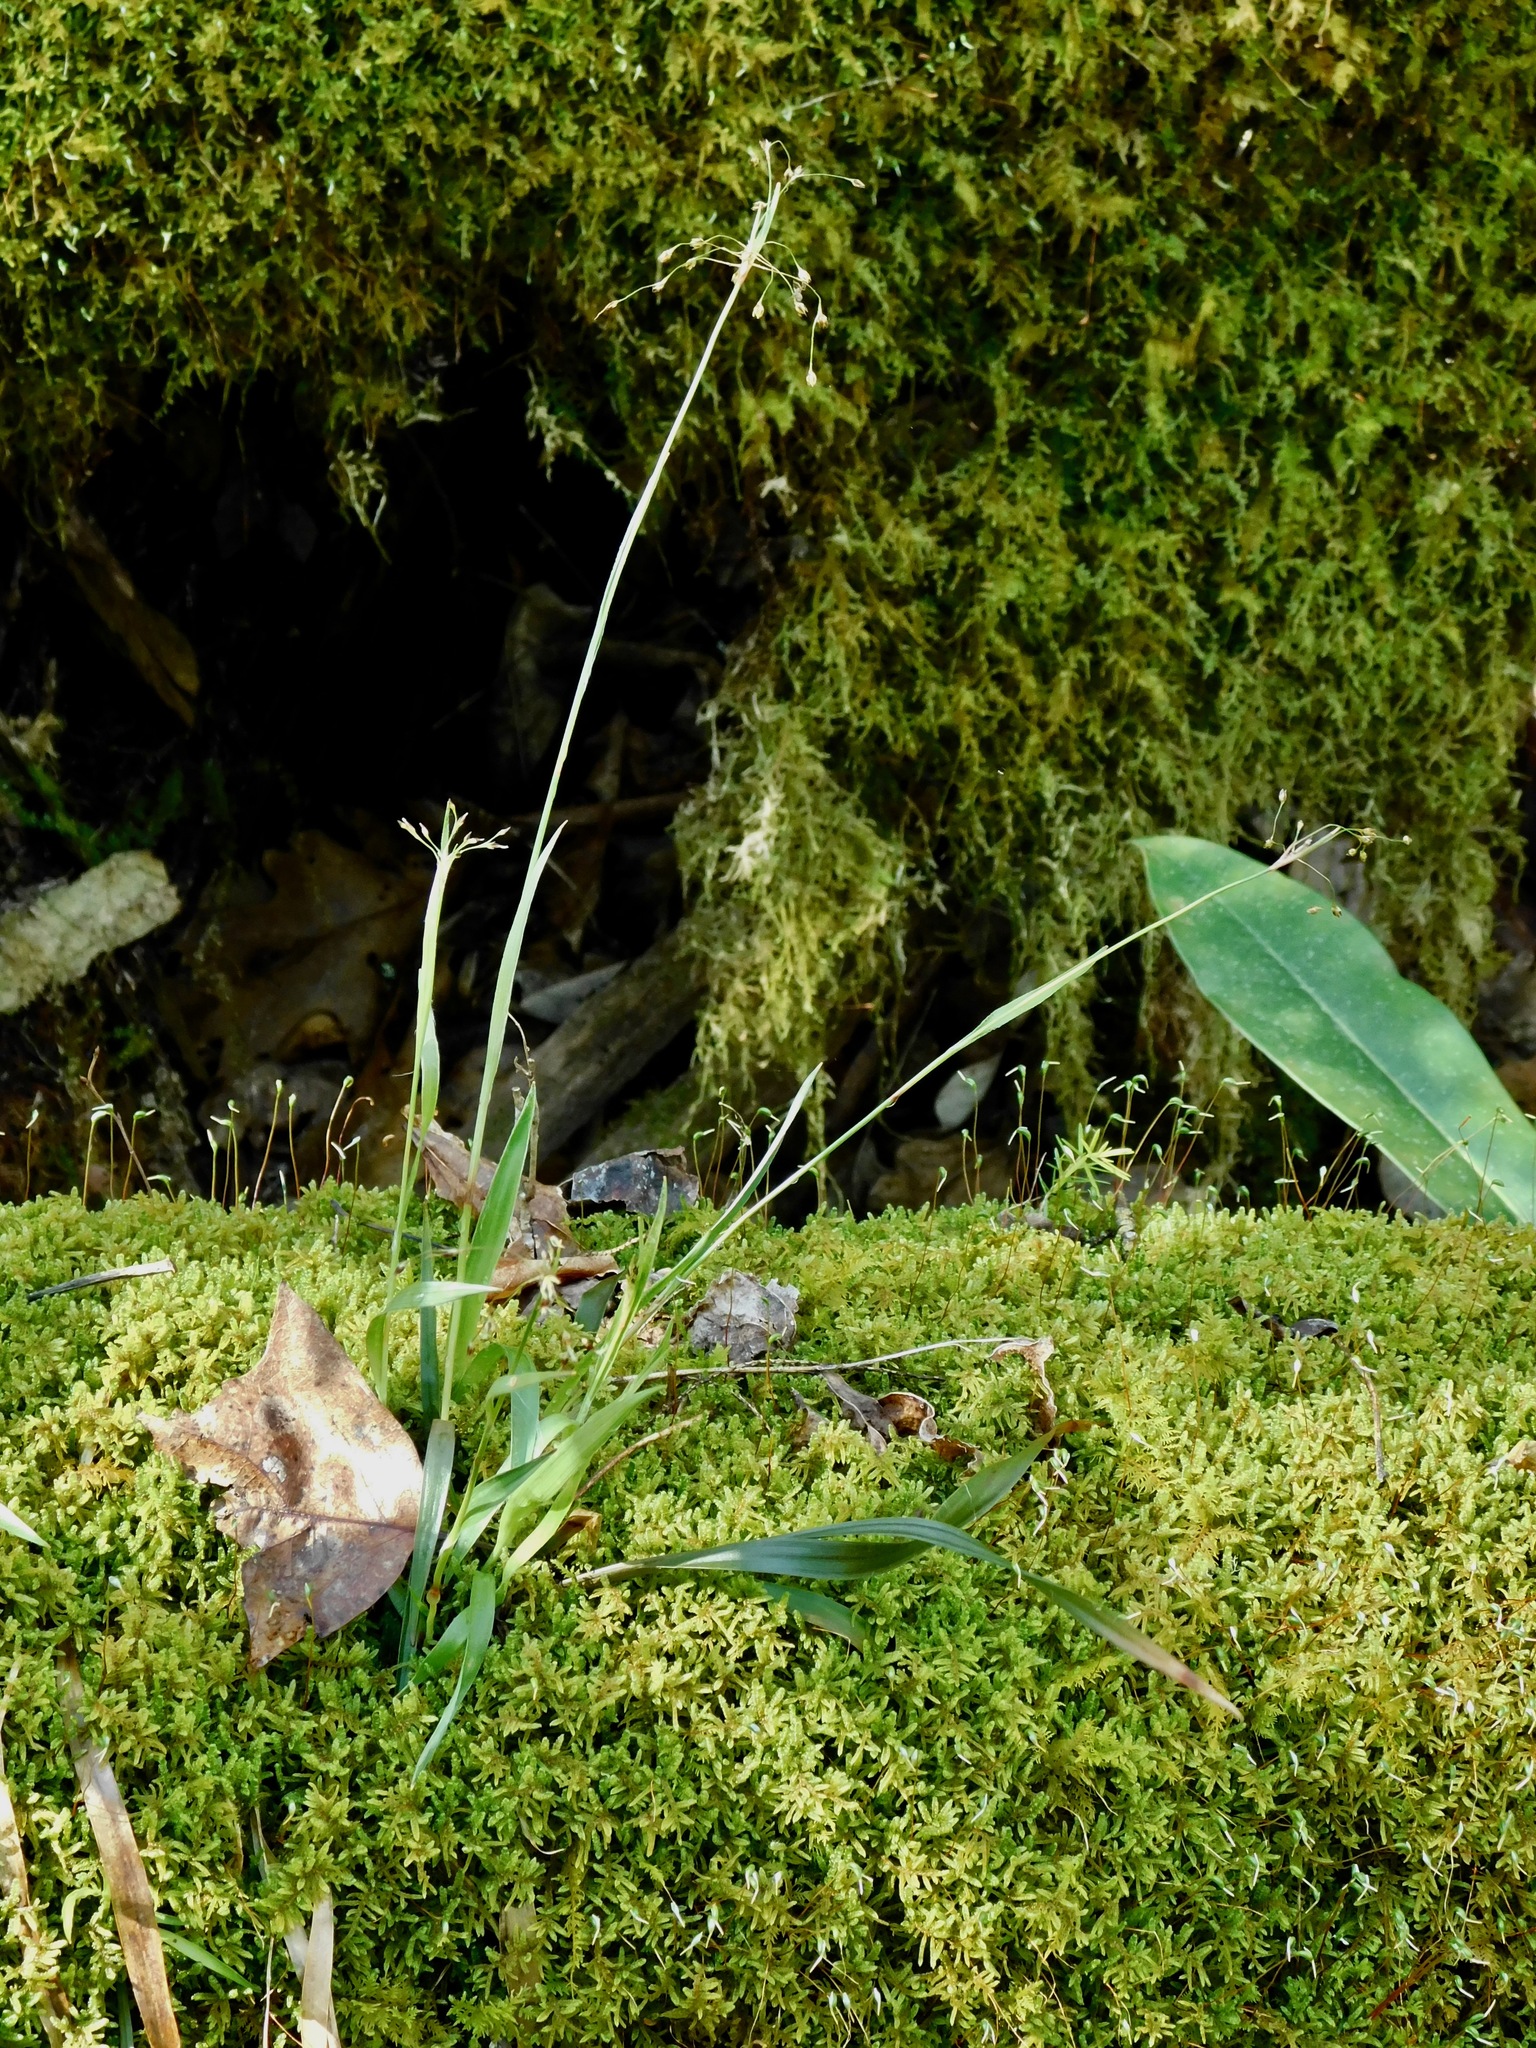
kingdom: Plantae
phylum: Tracheophyta
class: Liliopsida
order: Poales
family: Juncaceae
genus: Luzula
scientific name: Luzula acuminata
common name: Hairy woodrush
